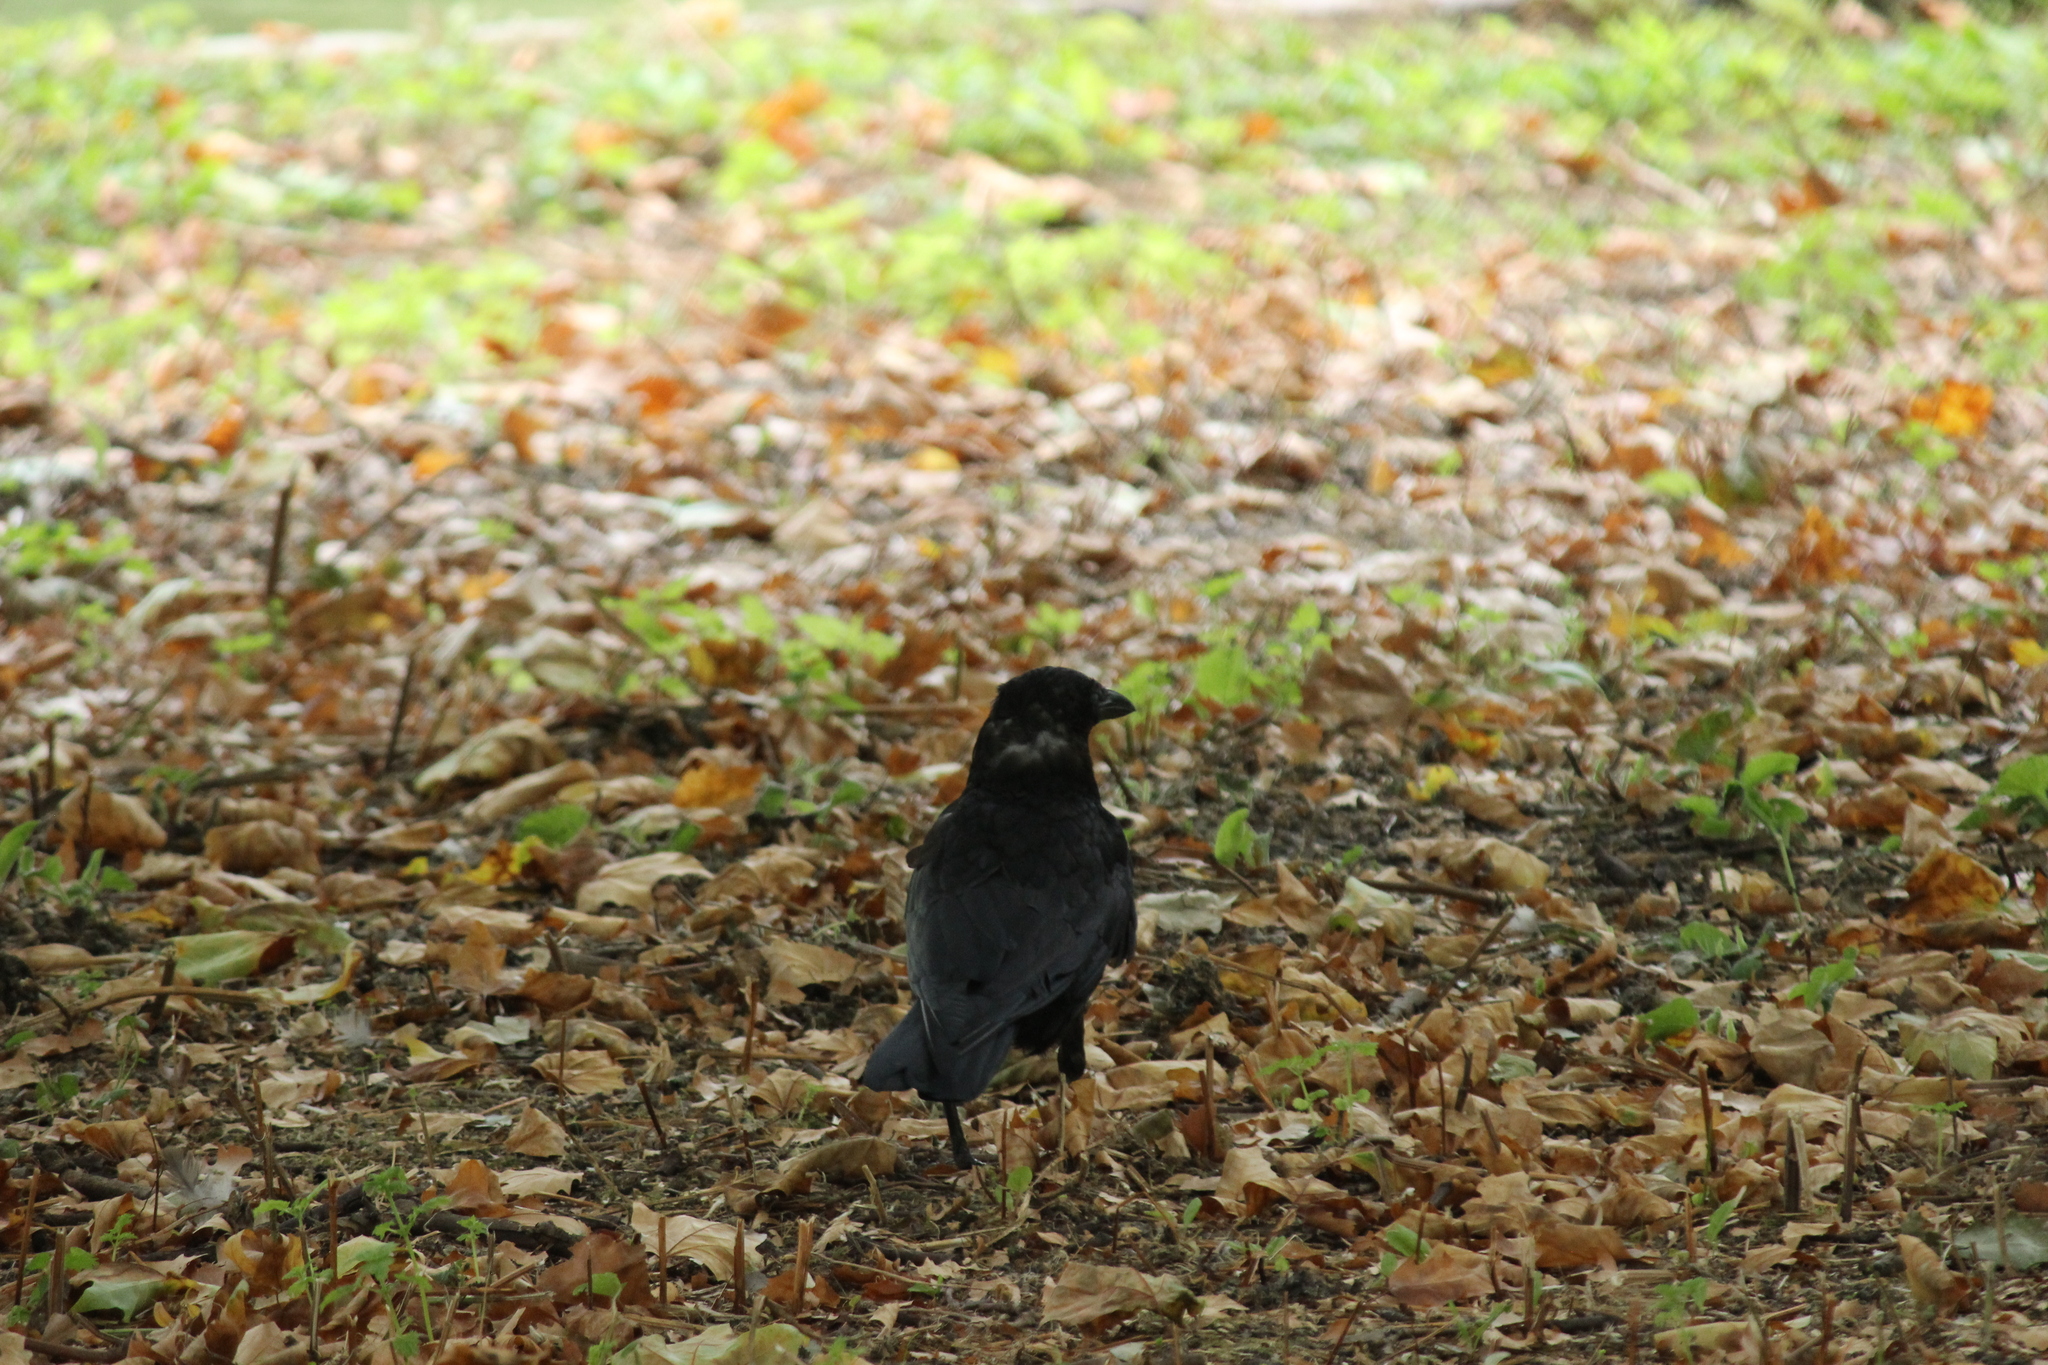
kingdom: Animalia
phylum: Chordata
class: Aves
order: Passeriformes
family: Corvidae
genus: Corvus
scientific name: Corvus corone
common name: Carrion crow
